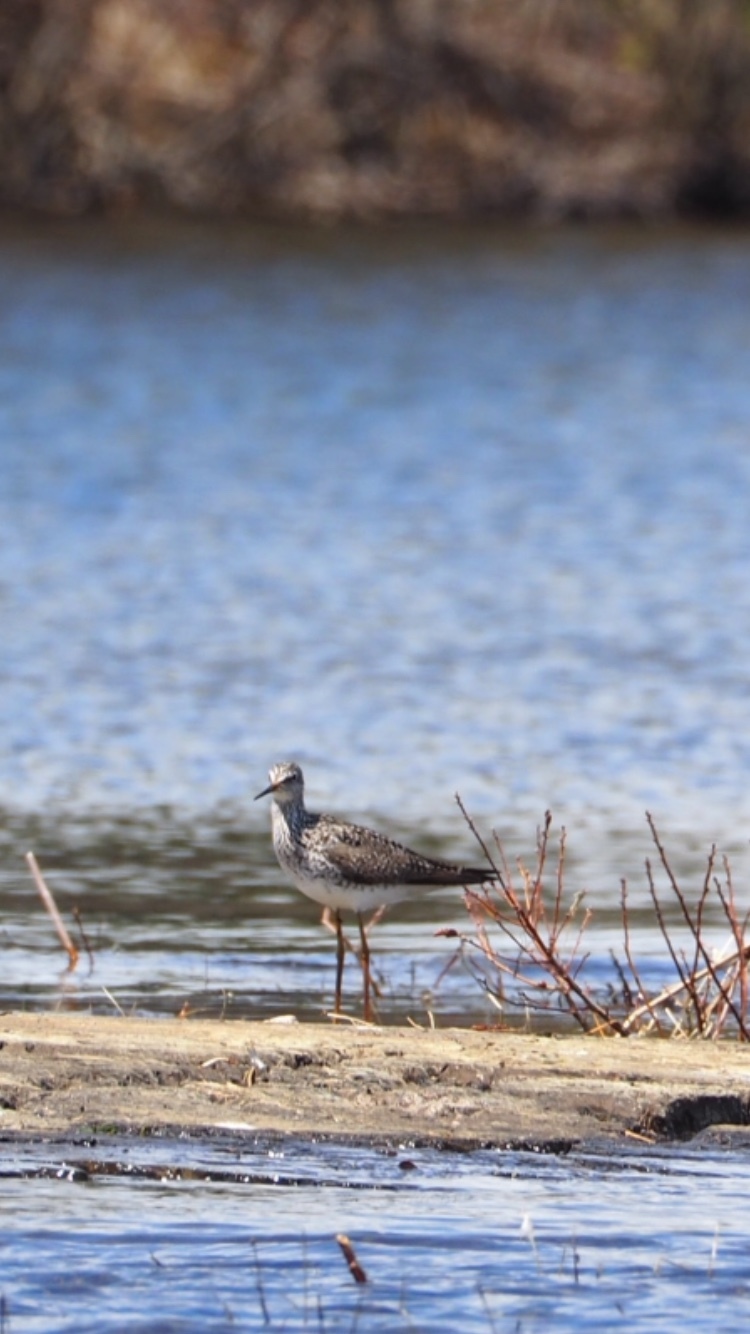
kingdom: Animalia
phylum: Chordata
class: Aves
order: Charadriiformes
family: Scolopacidae
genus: Tringa
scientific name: Tringa flavipes
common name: Lesser yellowlegs
